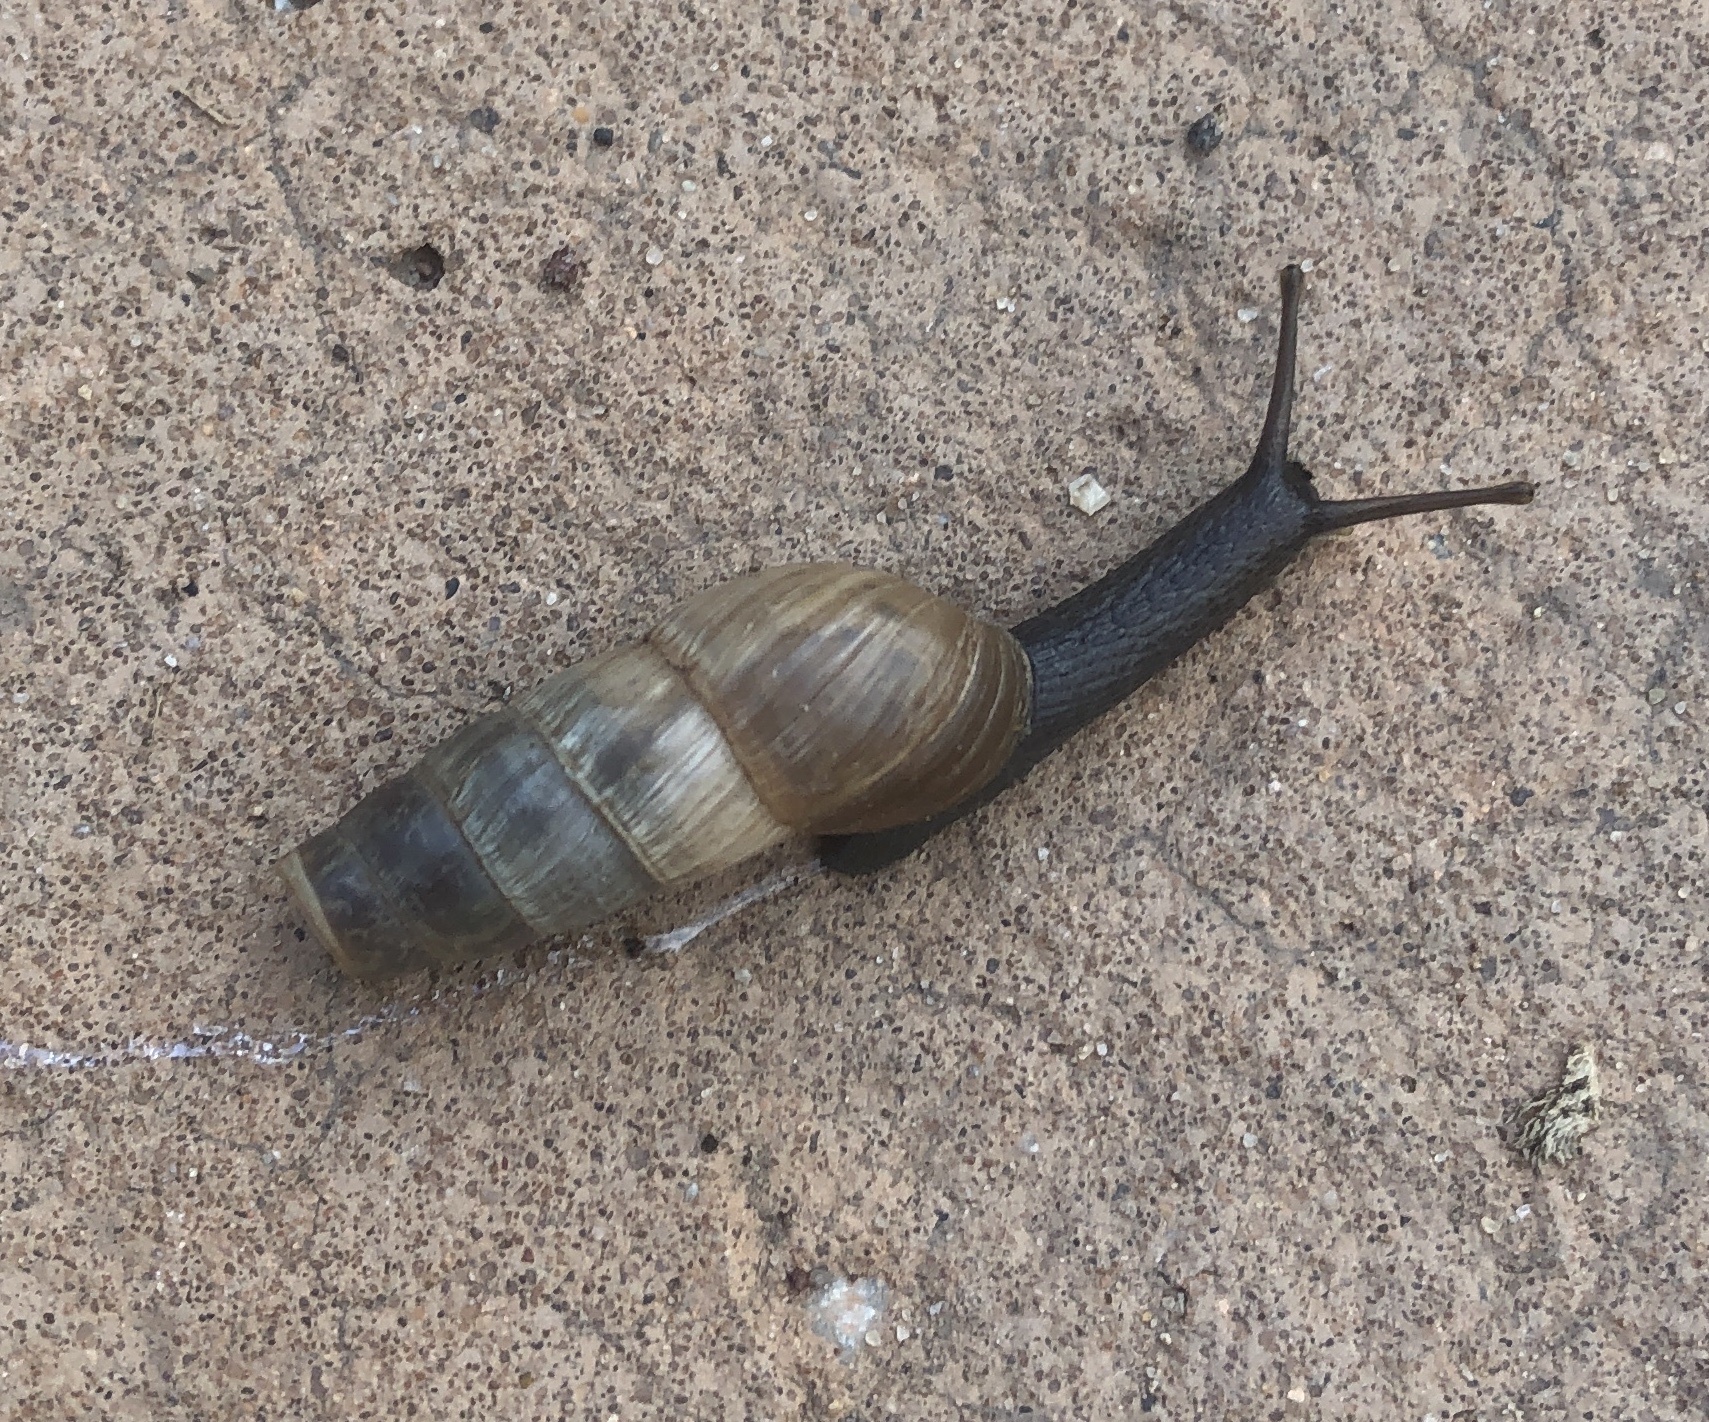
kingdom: Animalia
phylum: Mollusca
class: Gastropoda
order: Stylommatophora
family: Achatinidae
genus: Rumina
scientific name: Rumina decollata
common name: Decollate snail
